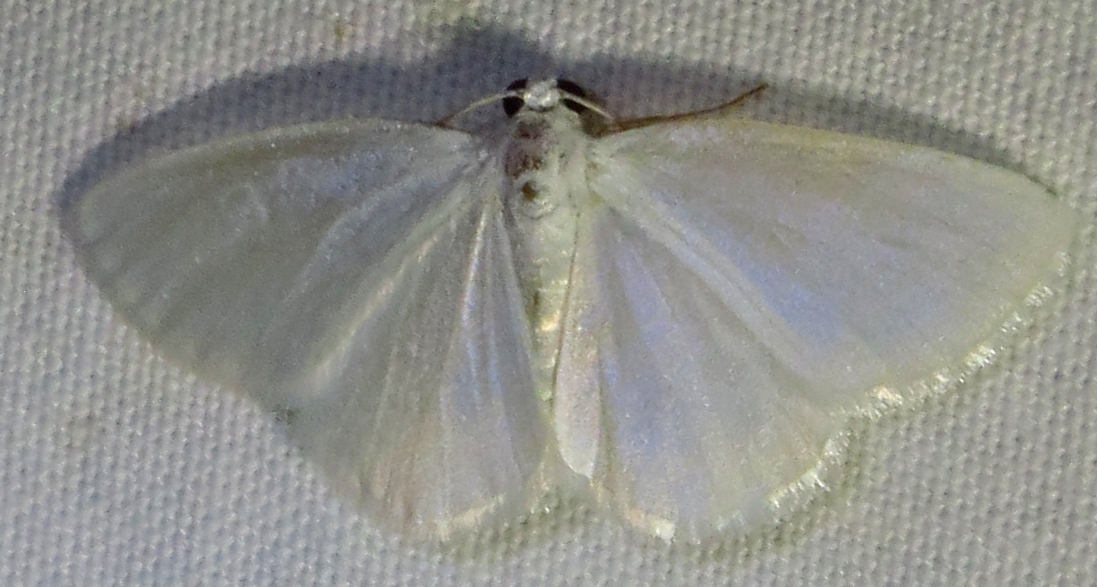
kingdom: Animalia
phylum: Arthropoda
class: Insecta
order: Lepidoptera
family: Geometridae
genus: Lomographa
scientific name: Lomographa vestaliata
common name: White spring moth
